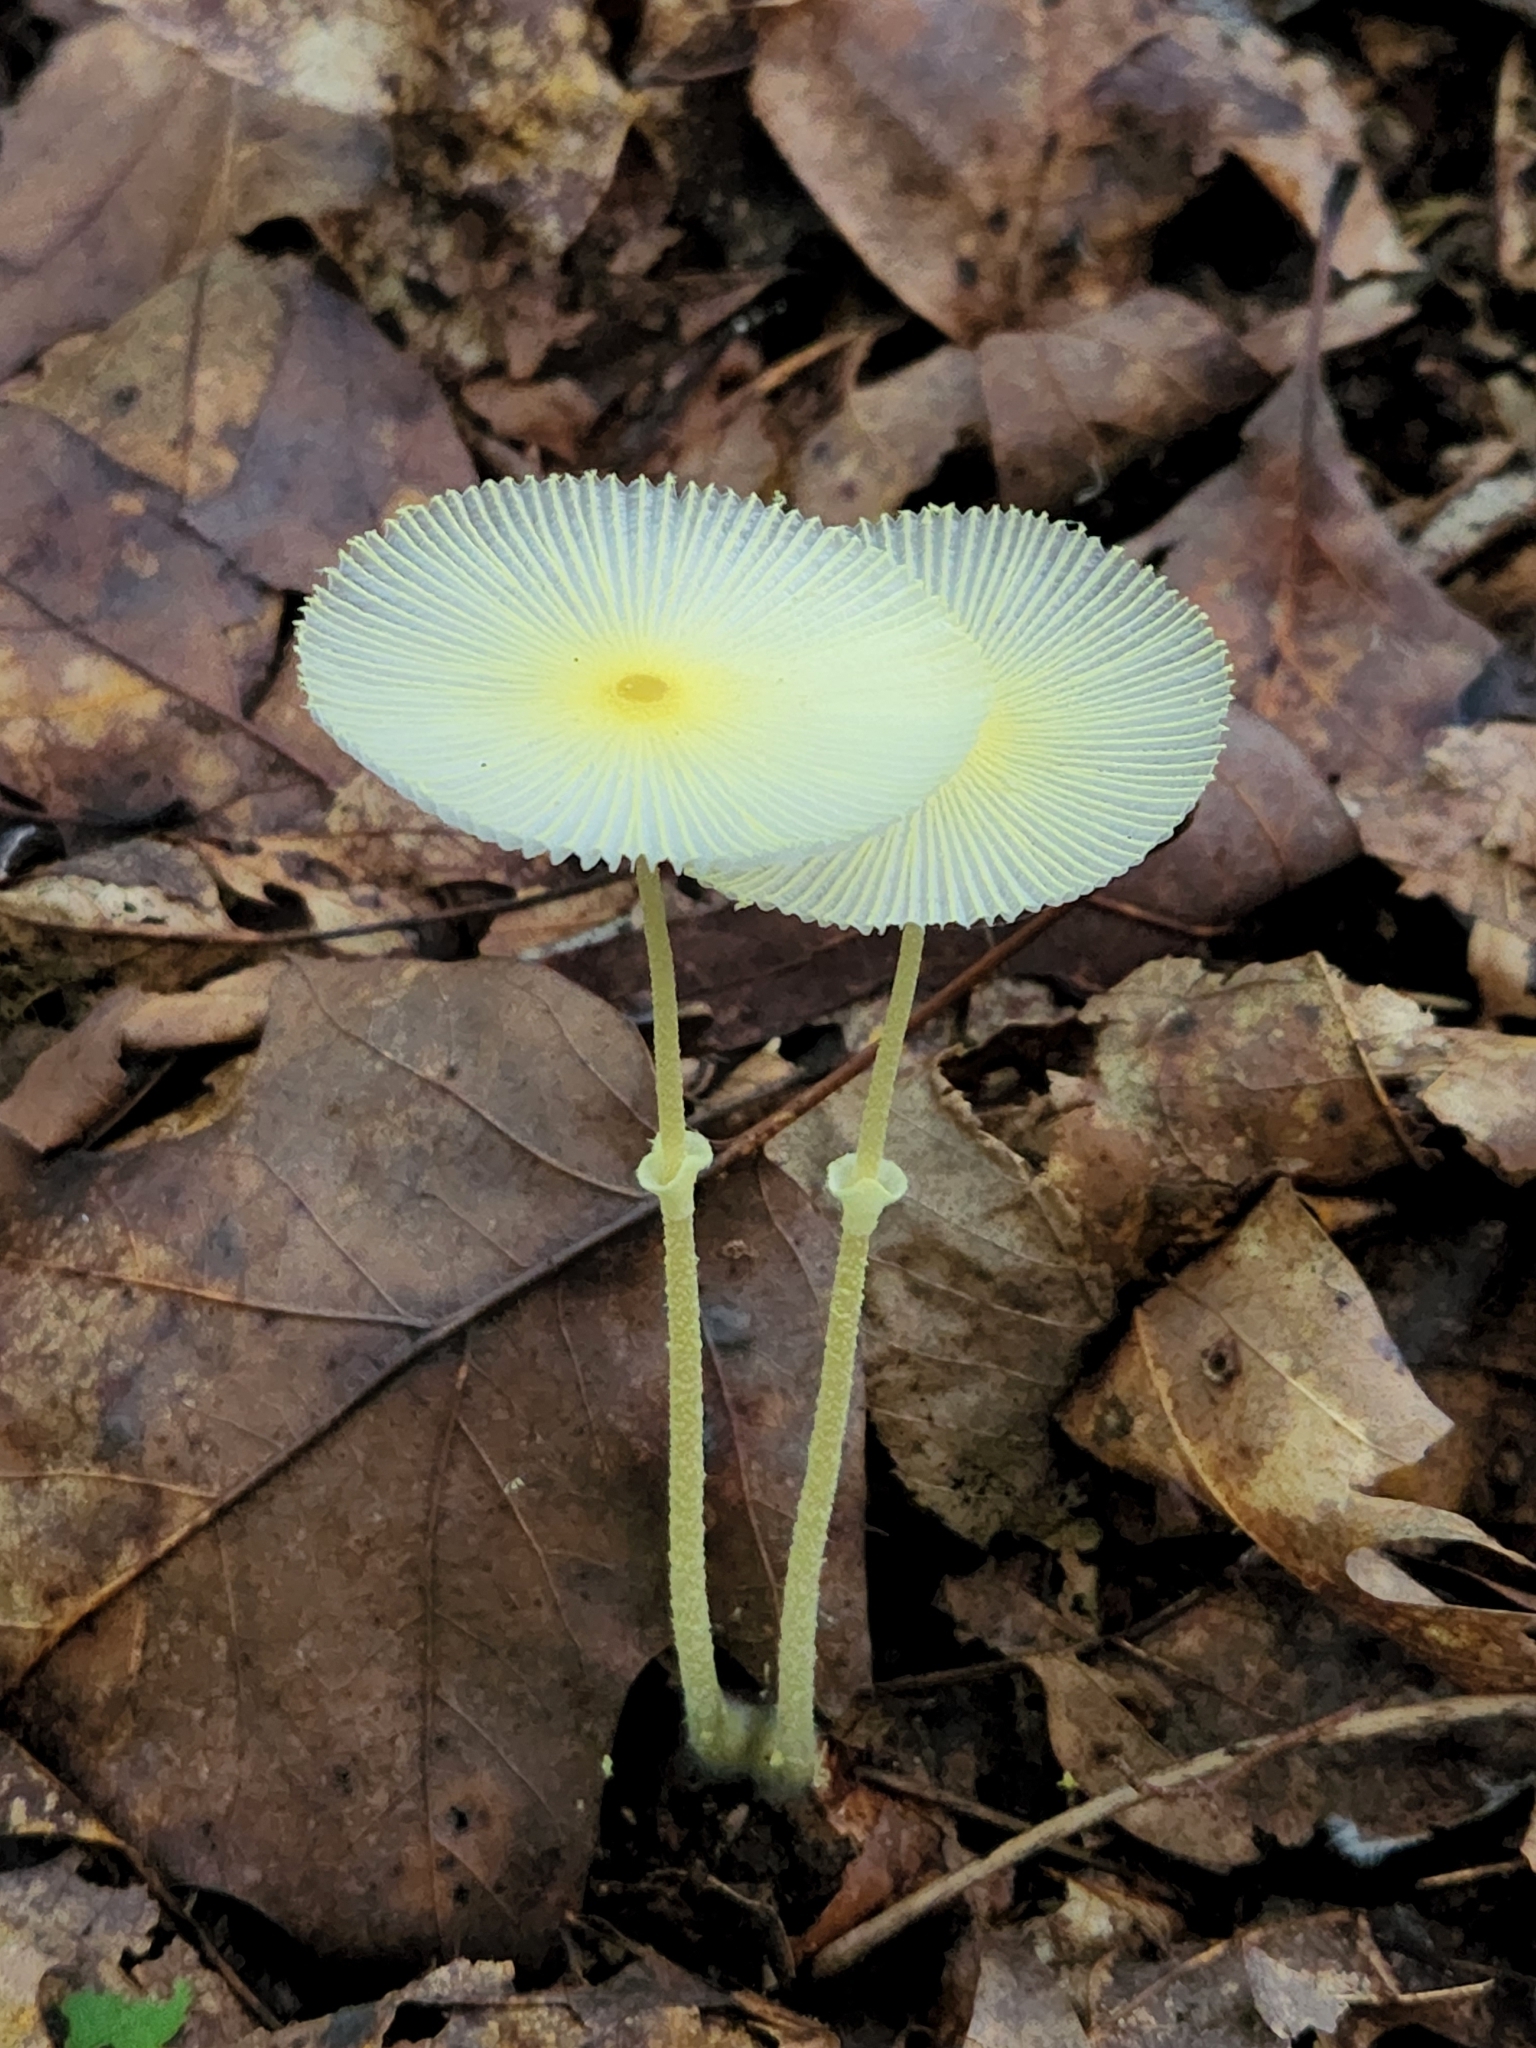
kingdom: Fungi
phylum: Basidiomycota
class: Agaricomycetes
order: Agaricales
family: Agaricaceae
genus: Leucocoprinus
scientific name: Leucocoprinus fragilissimus
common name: Fragile dapperling
